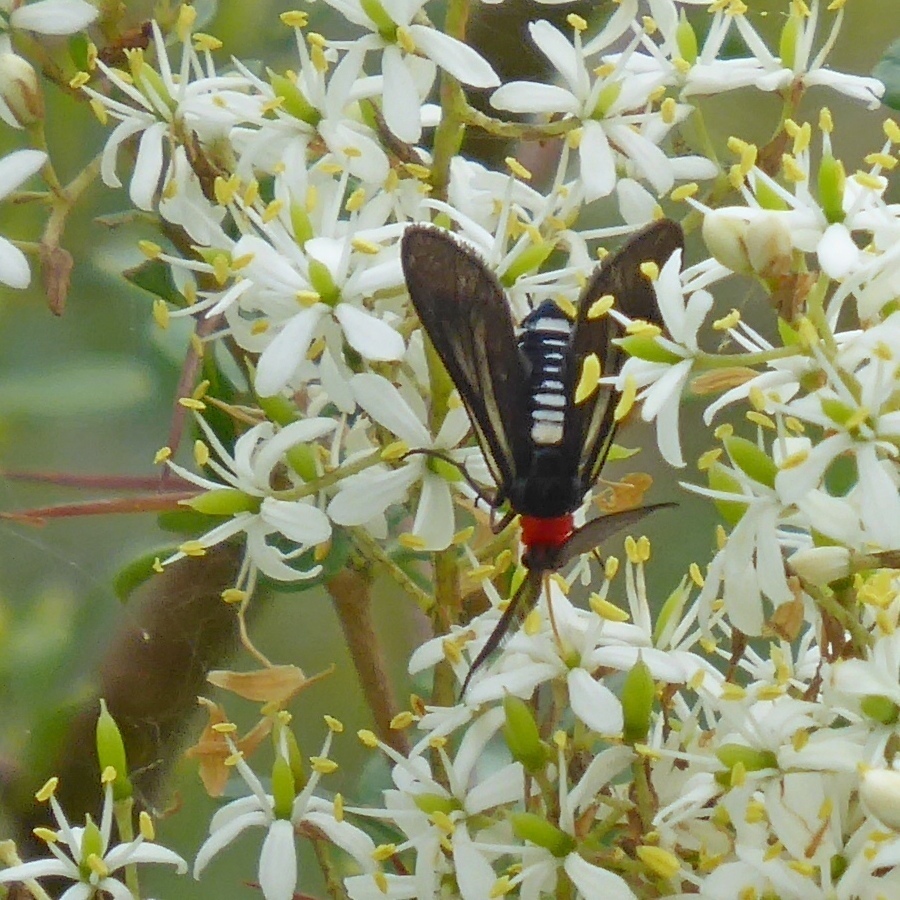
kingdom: Animalia
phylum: Arthropoda
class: Insecta
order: Lepidoptera
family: Zygaenidae
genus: Hestiochora
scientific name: Hestiochora furcata
